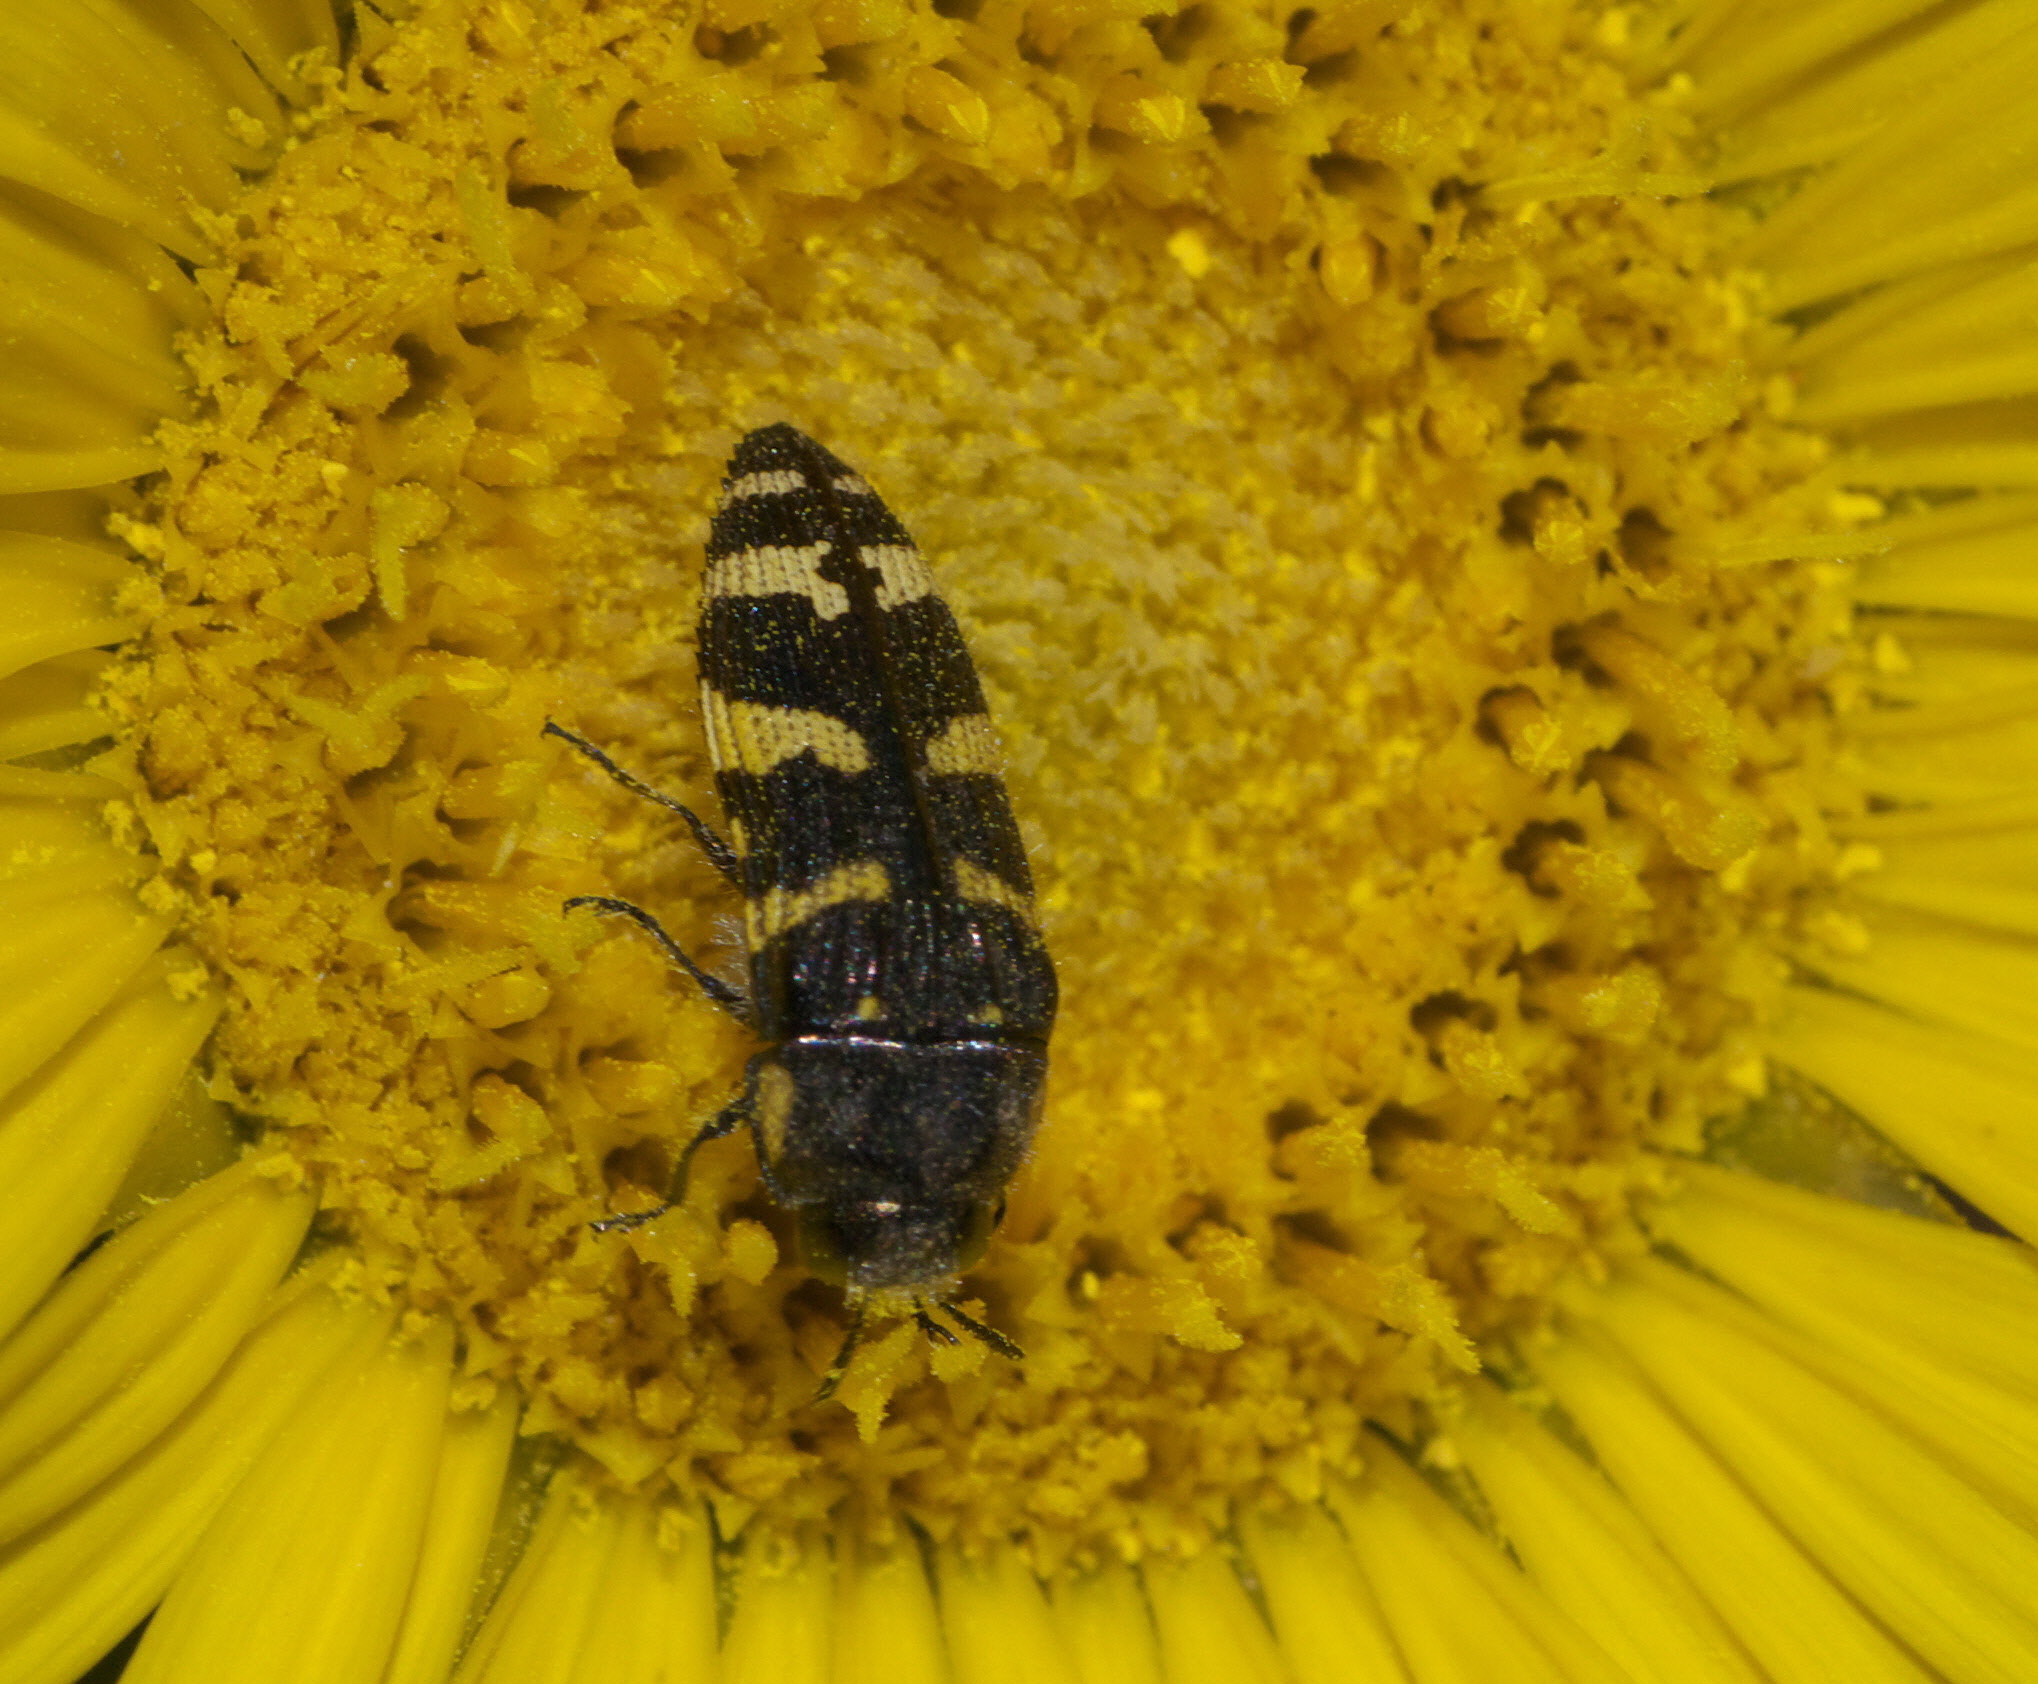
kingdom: Animalia
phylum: Arthropoda
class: Insecta
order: Coleoptera
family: Buprestidae
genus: Acmaeodera
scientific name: Acmaeodera macra
